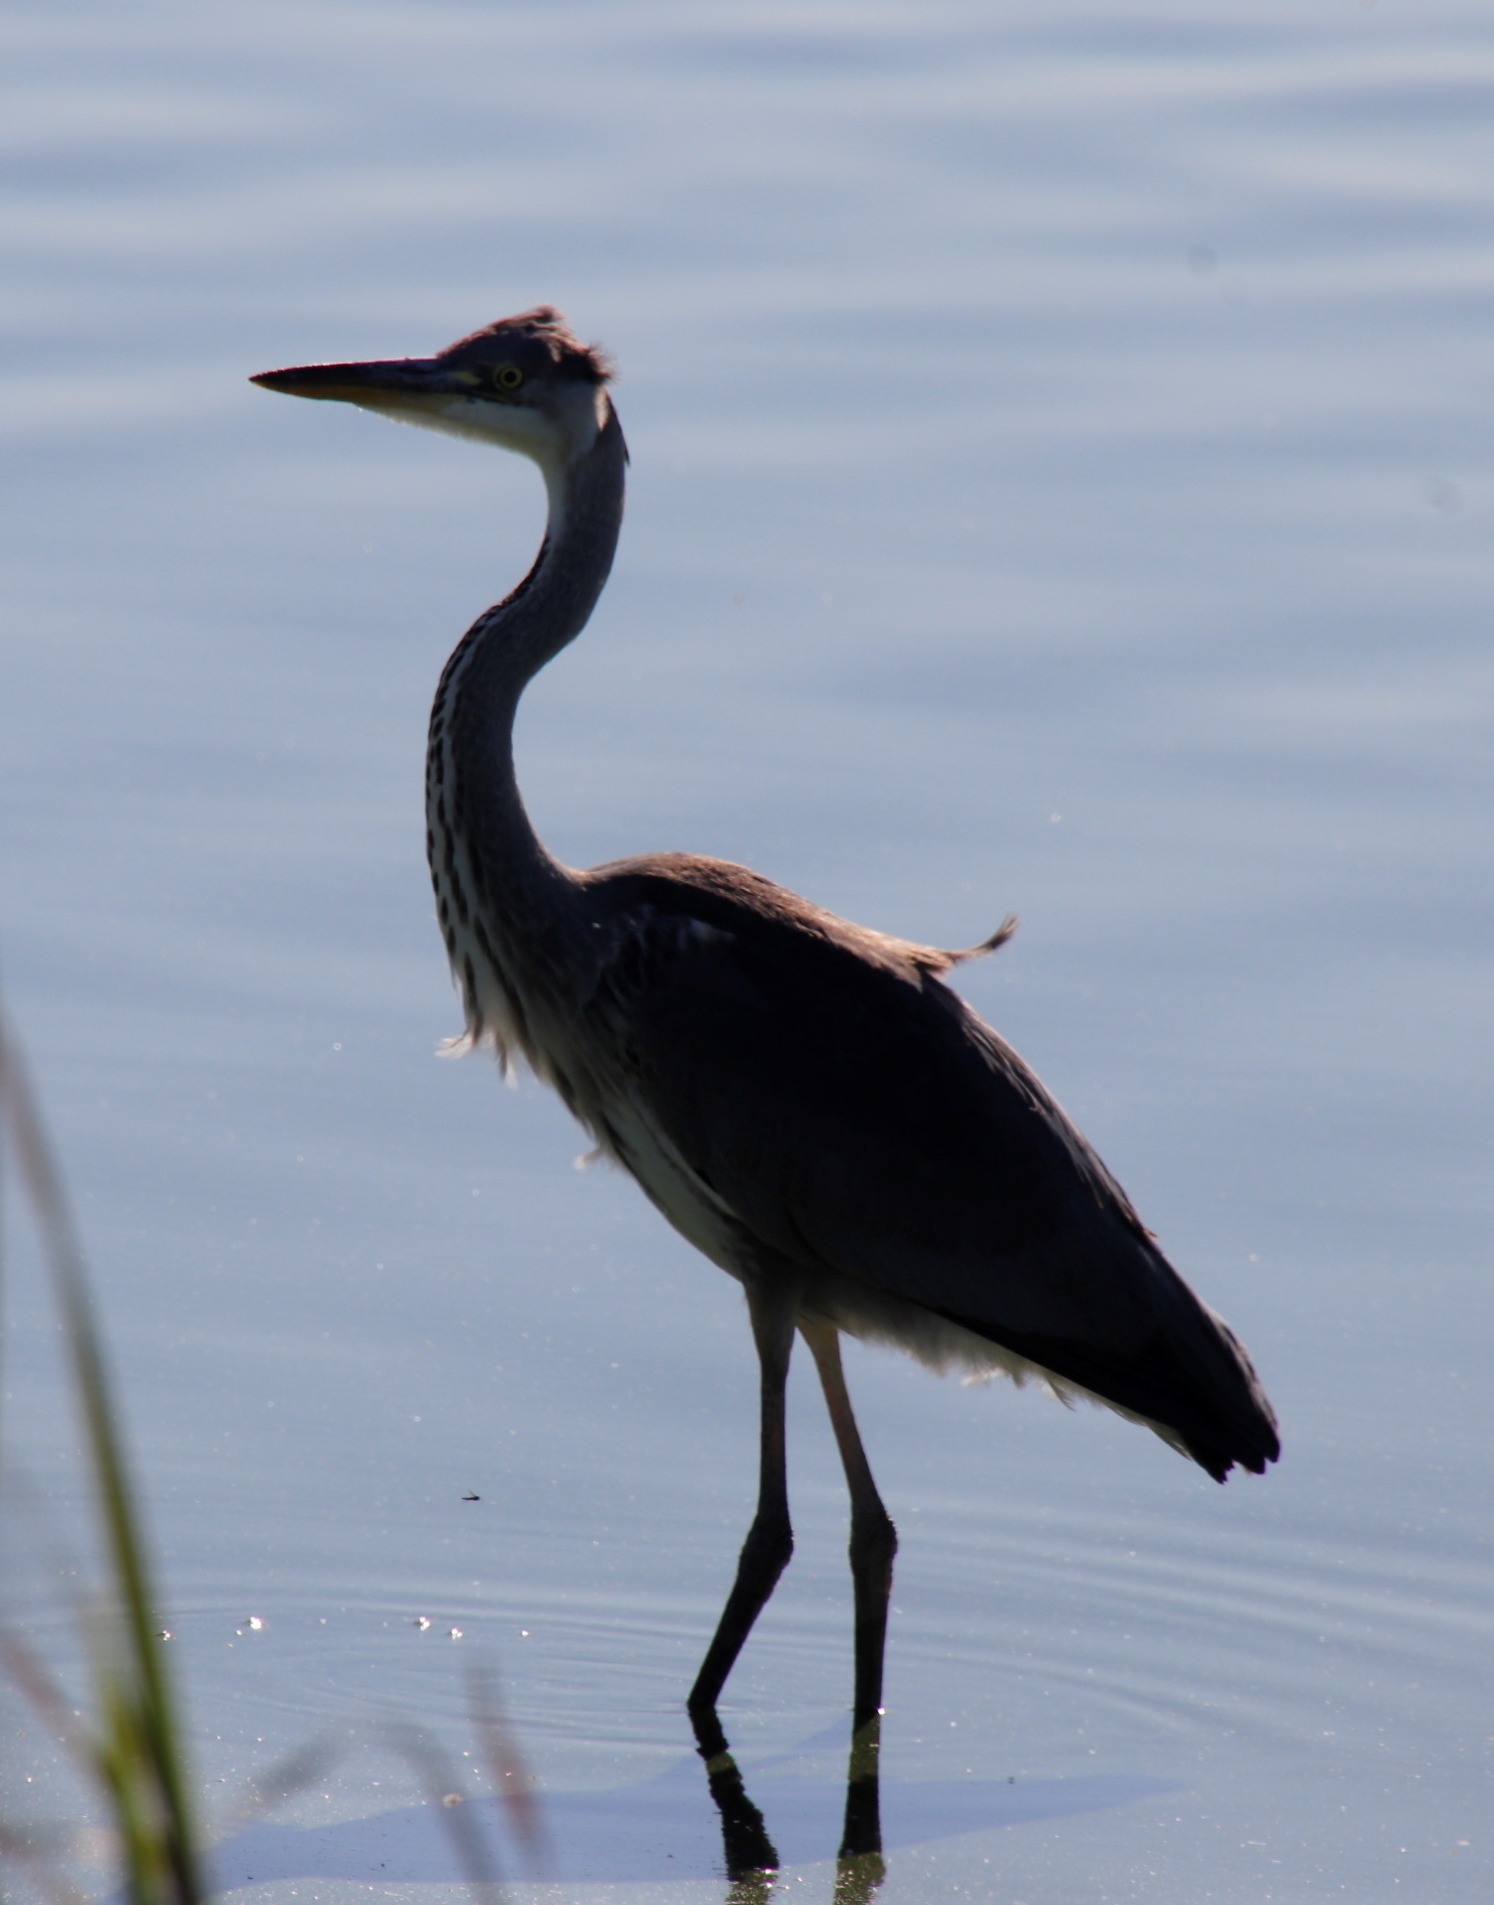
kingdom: Animalia
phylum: Chordata
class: Aves
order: Pelecaniformes
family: Ardeidae
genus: Ardea
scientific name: Ardea melanocephala
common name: Black-headed heron
